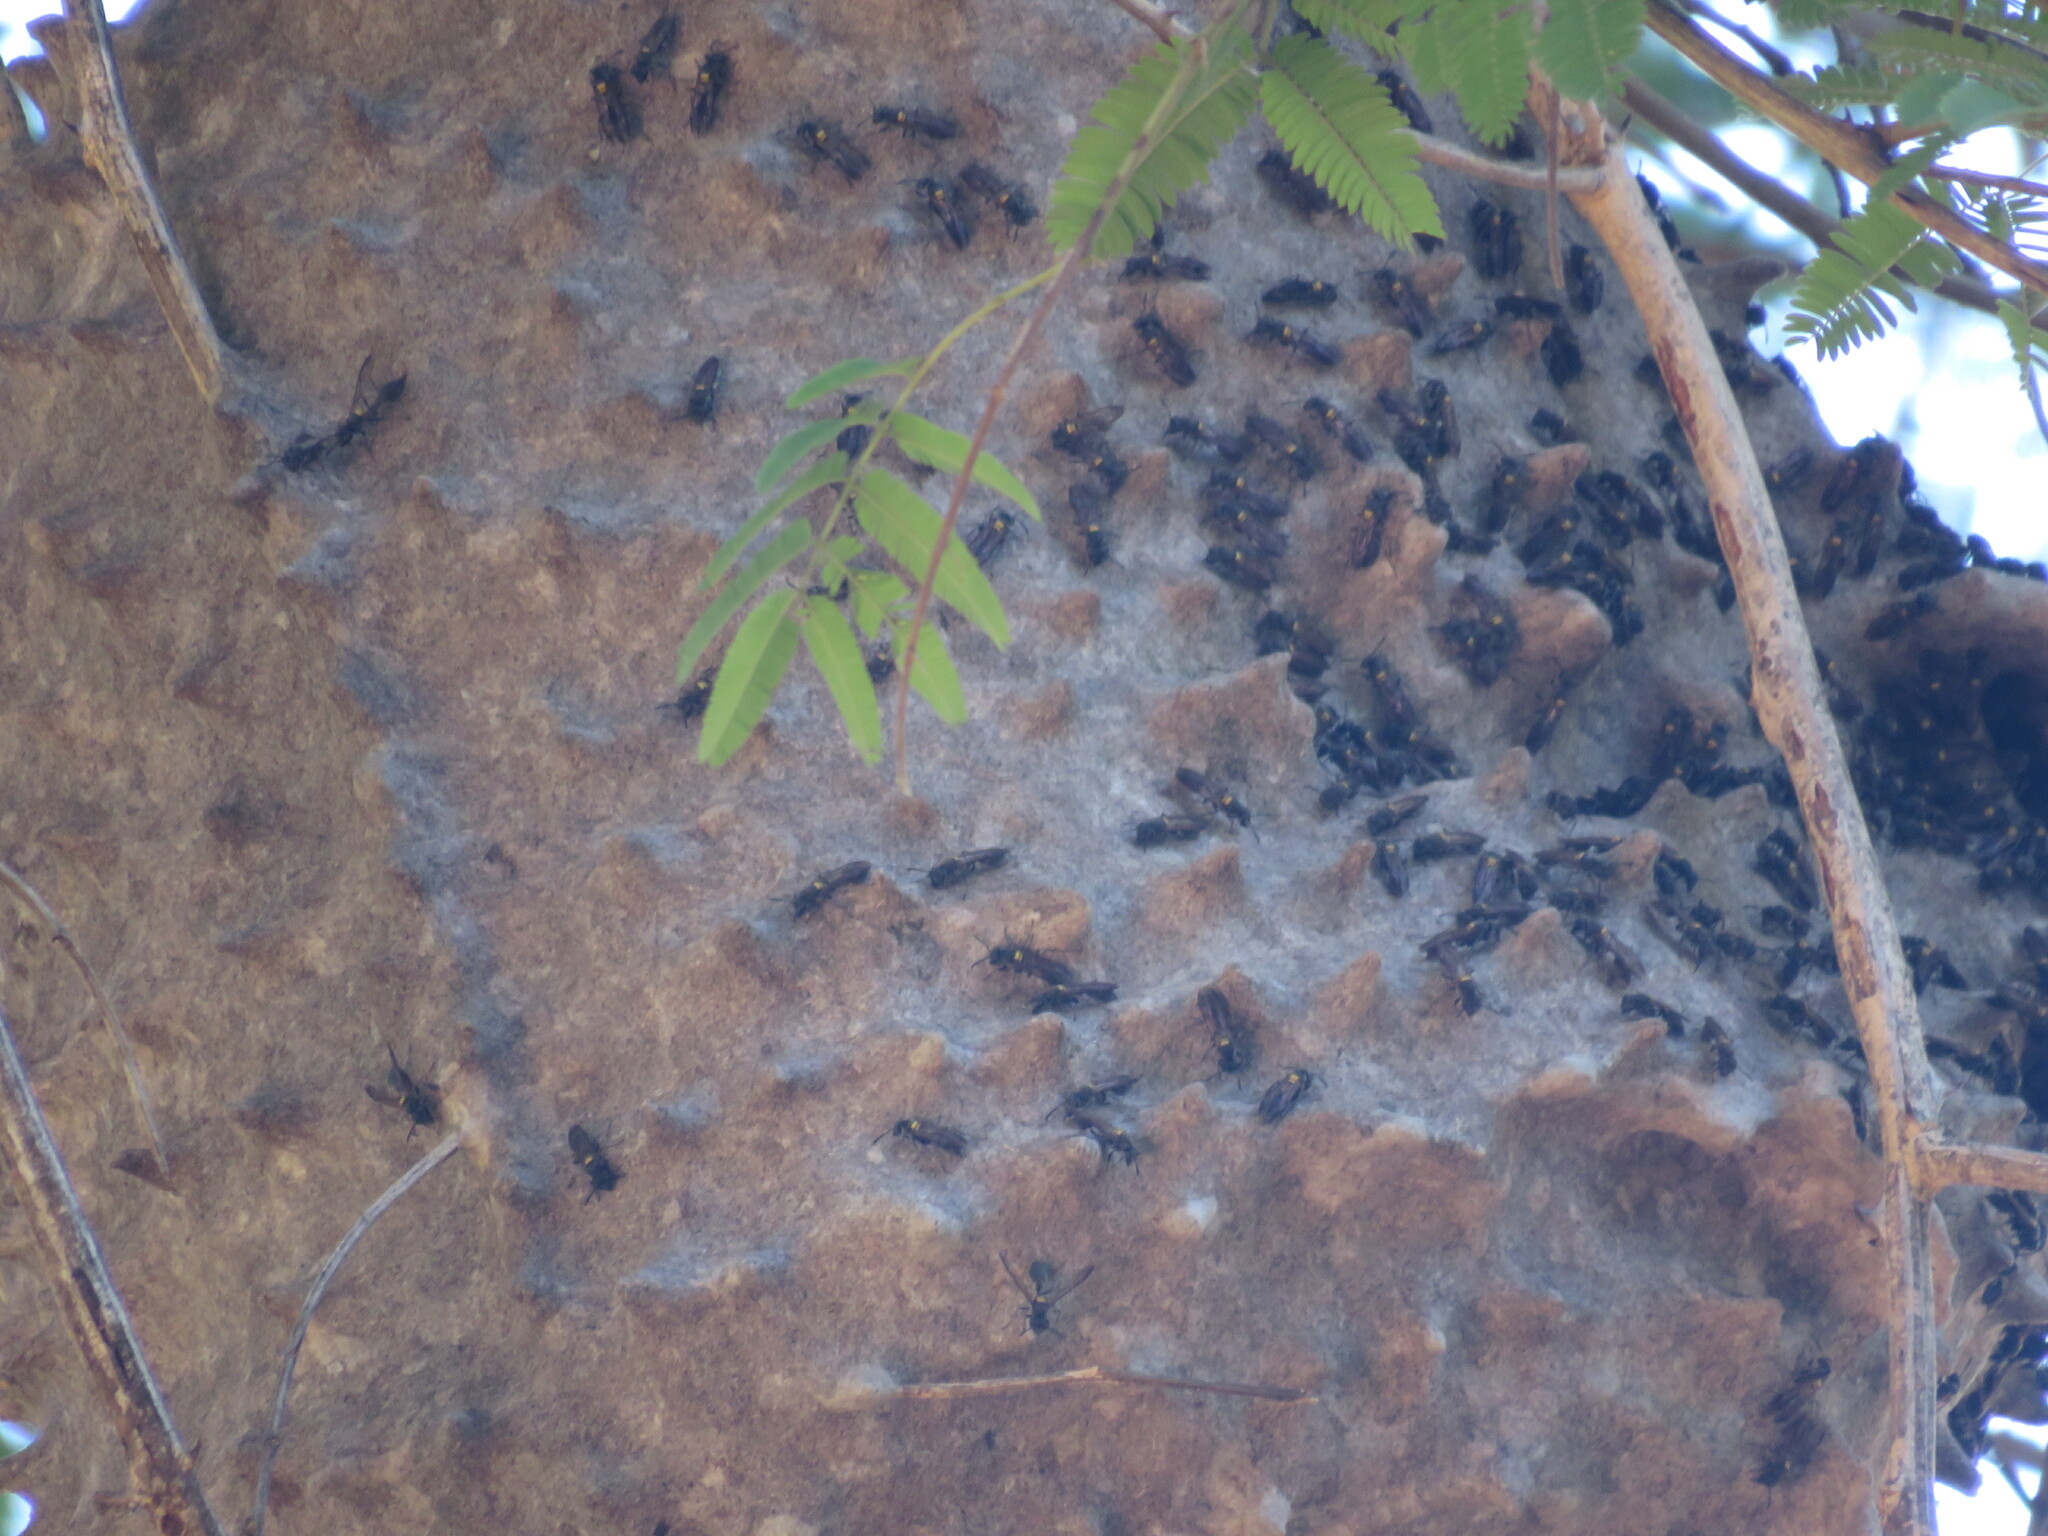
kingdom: Animalia
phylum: Arthropoda
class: Insecta
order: Hymenoptera
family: Eumenidae
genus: Polybia
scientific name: Polybia scutellaris
